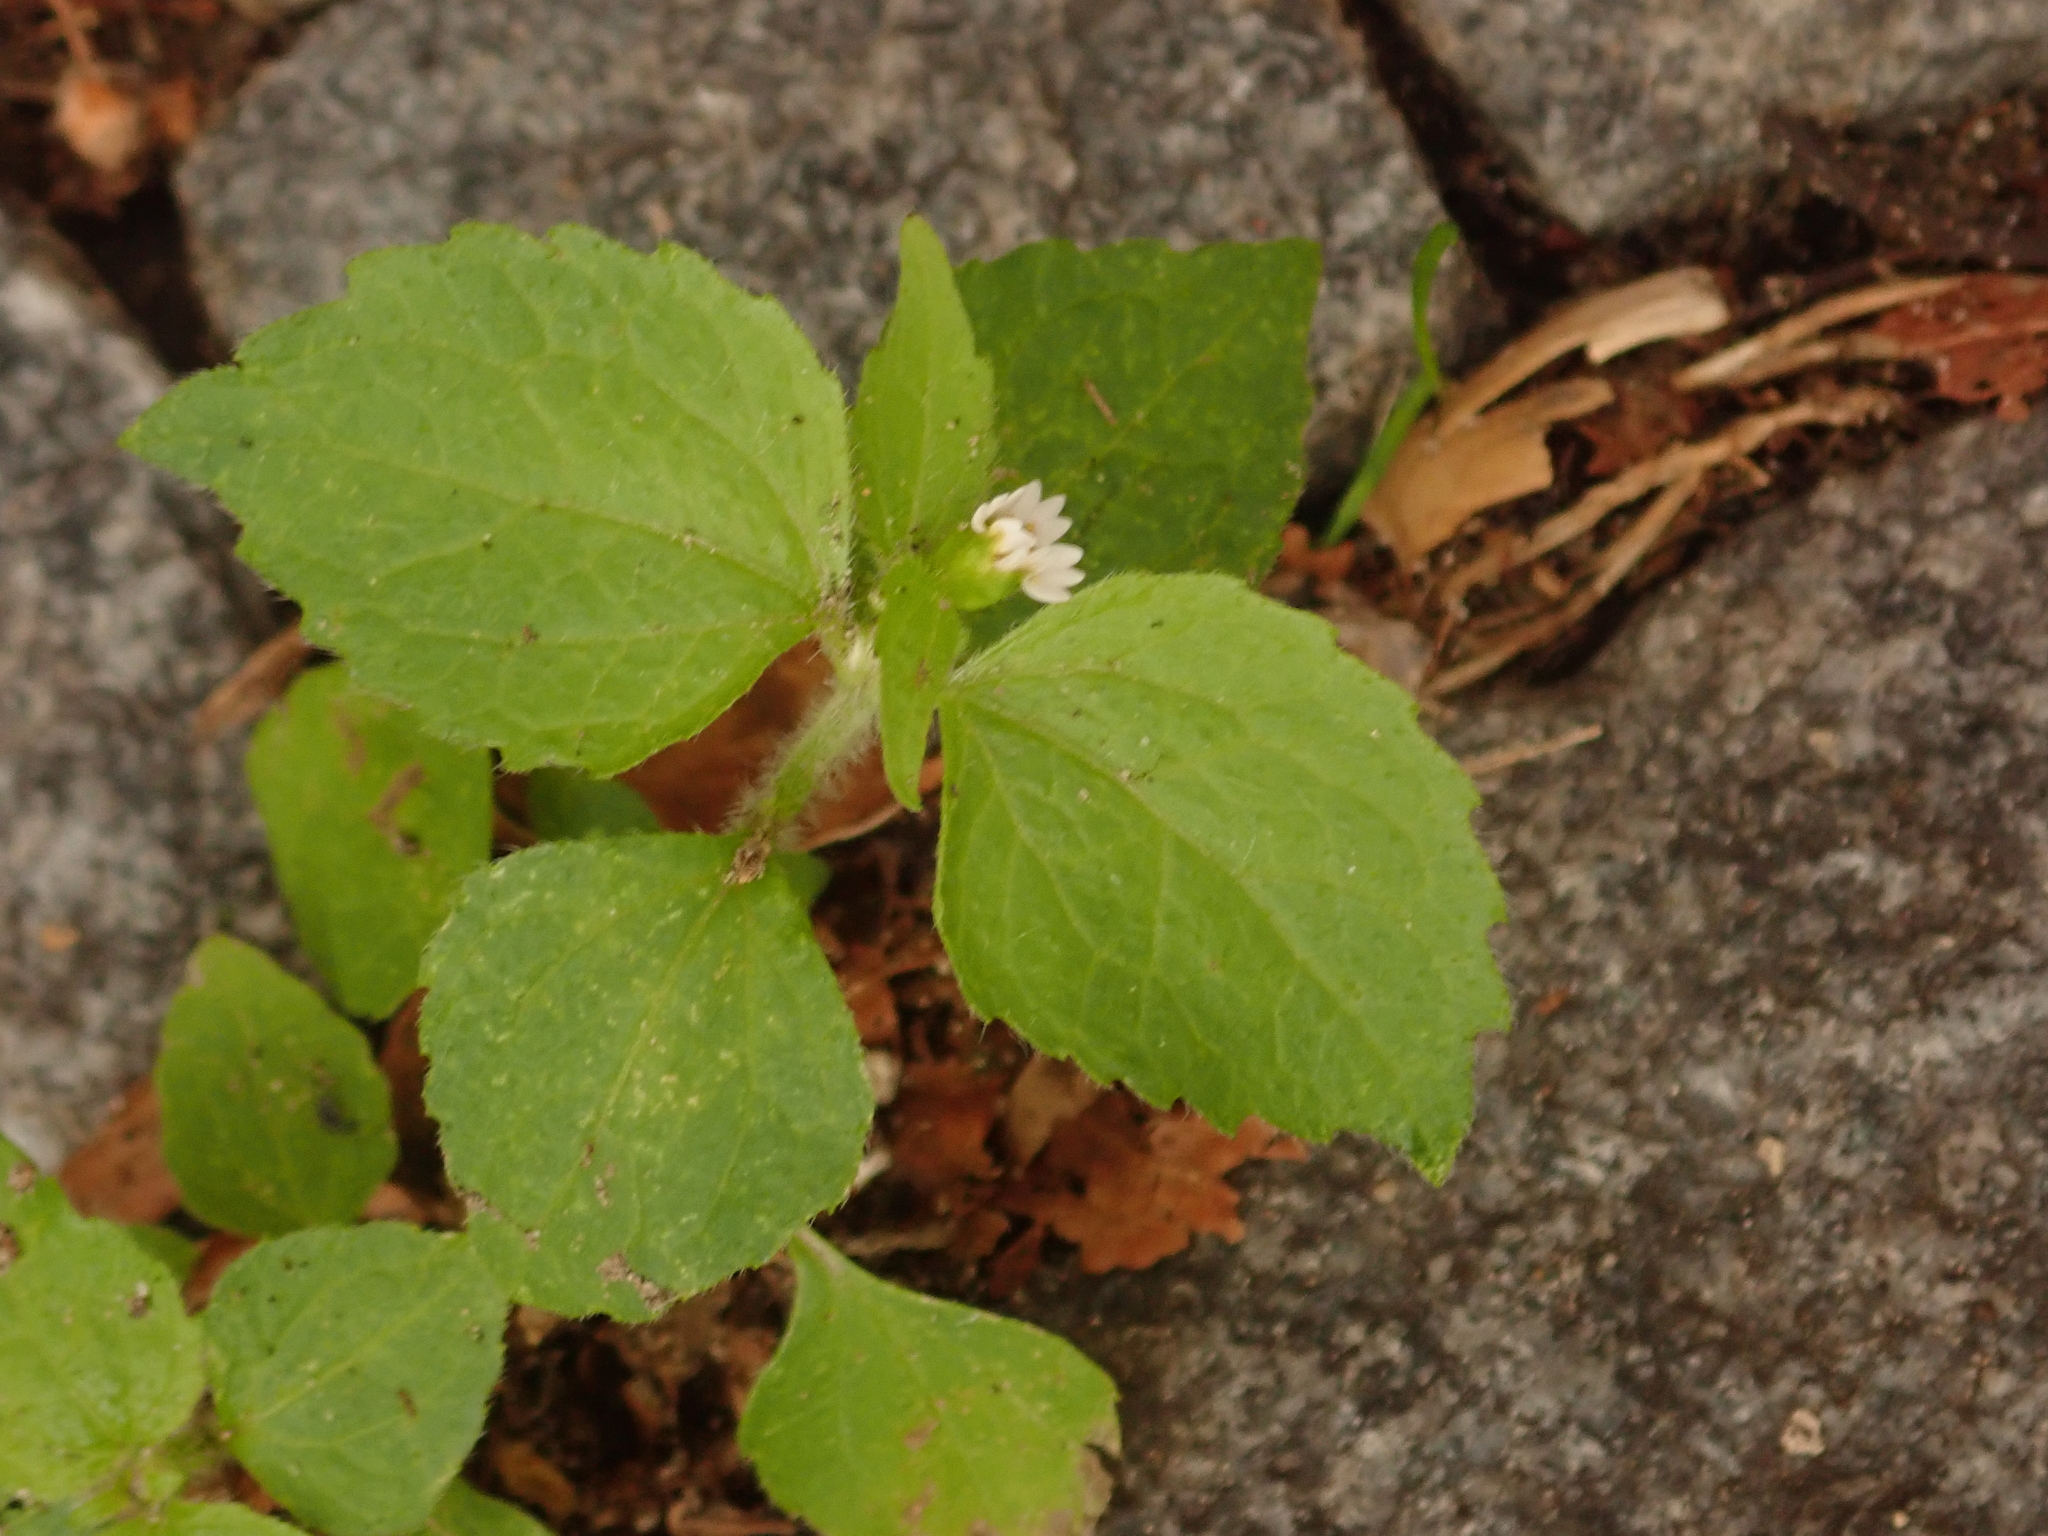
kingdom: Plantae
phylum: Tracheophyta
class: Magnoliopsida
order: Asterales
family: Asteraceae
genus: Galinsoga
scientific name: Galinsoga quadriradiata
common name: Shaggy soldier
